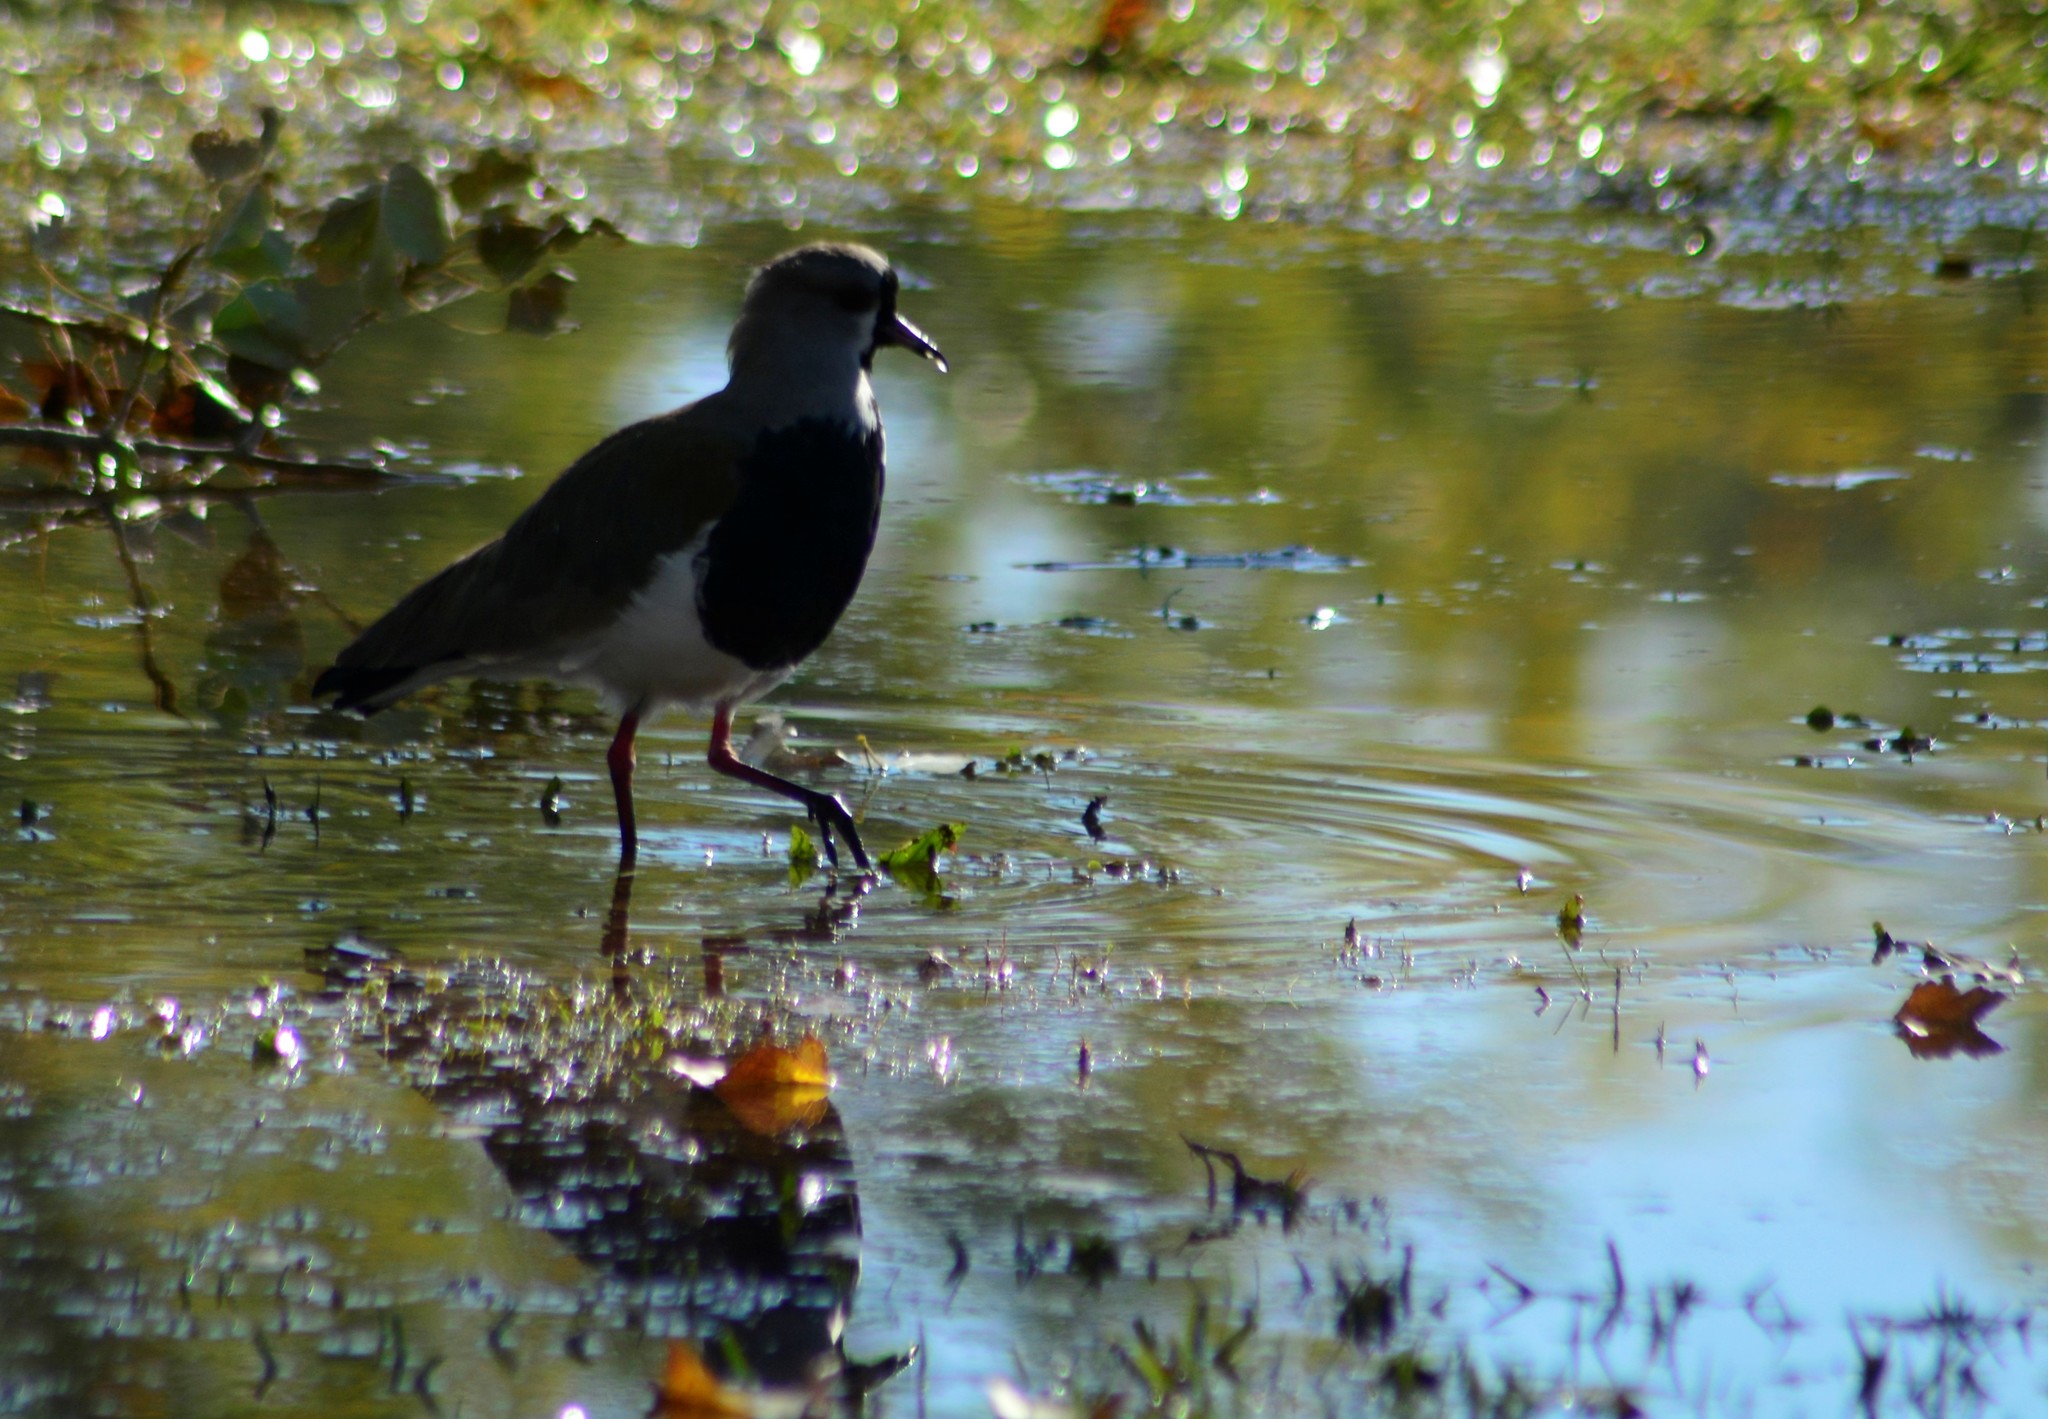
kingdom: Animalia
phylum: Chordata
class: Aves
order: Charadriiformes
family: Charadriidae
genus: Vanellus
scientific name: Vanellus chilensis
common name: Southern lapwing
